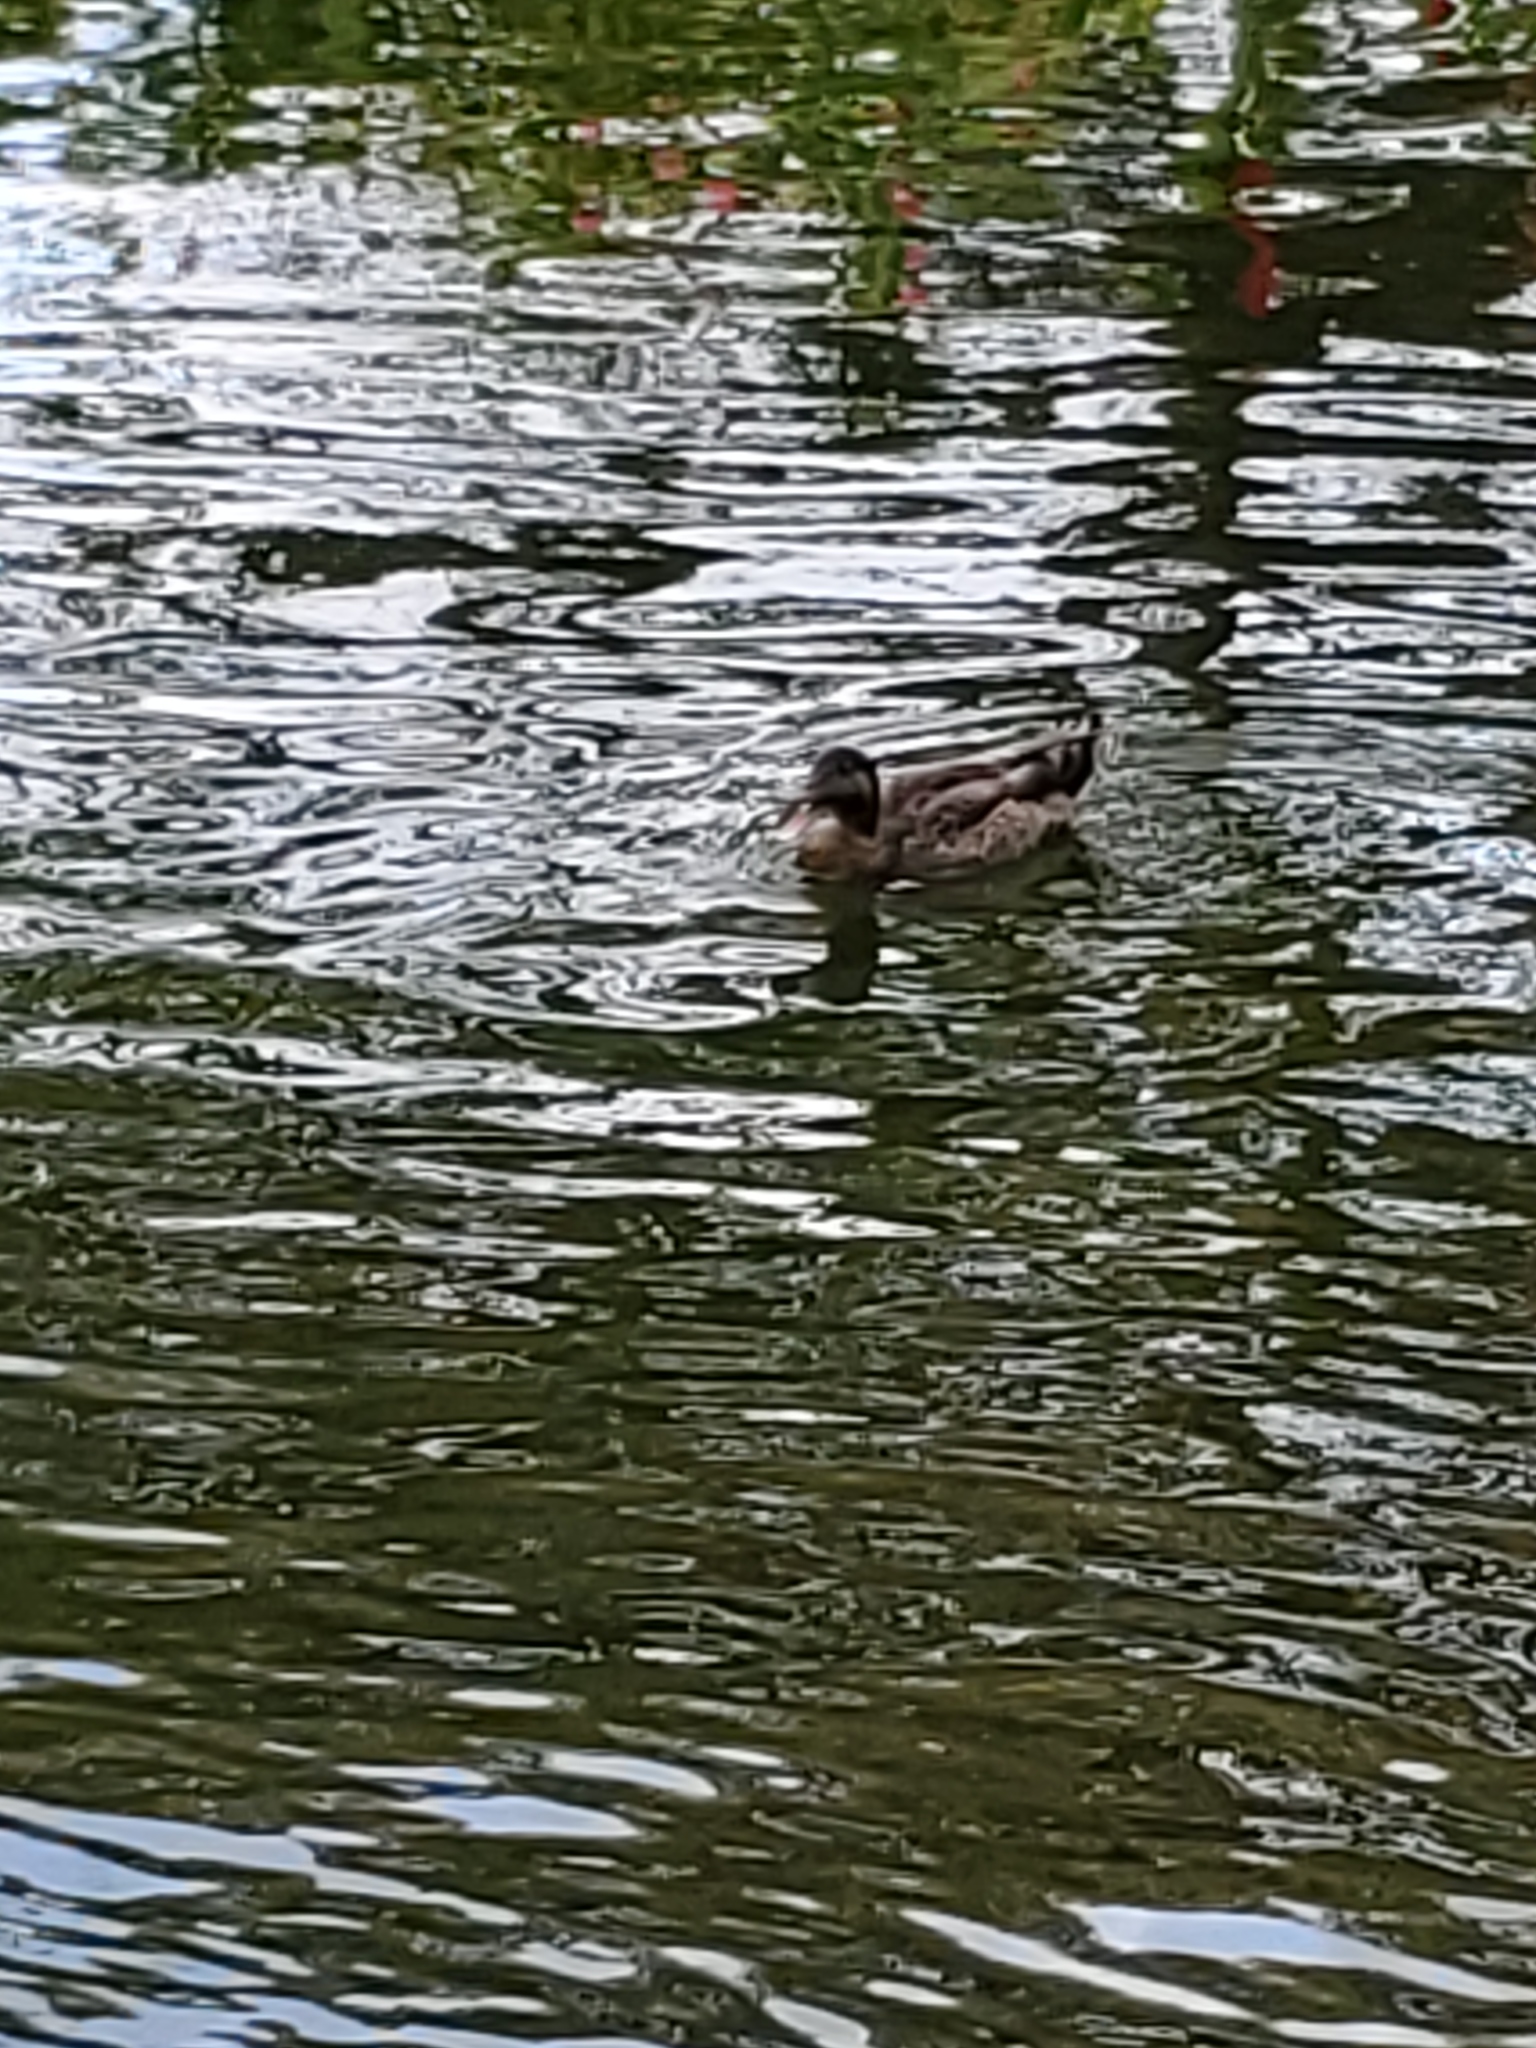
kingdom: Animalia
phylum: Chordata
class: Aves
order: Anseriformes
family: Anatidae
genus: Anas
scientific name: Anas
